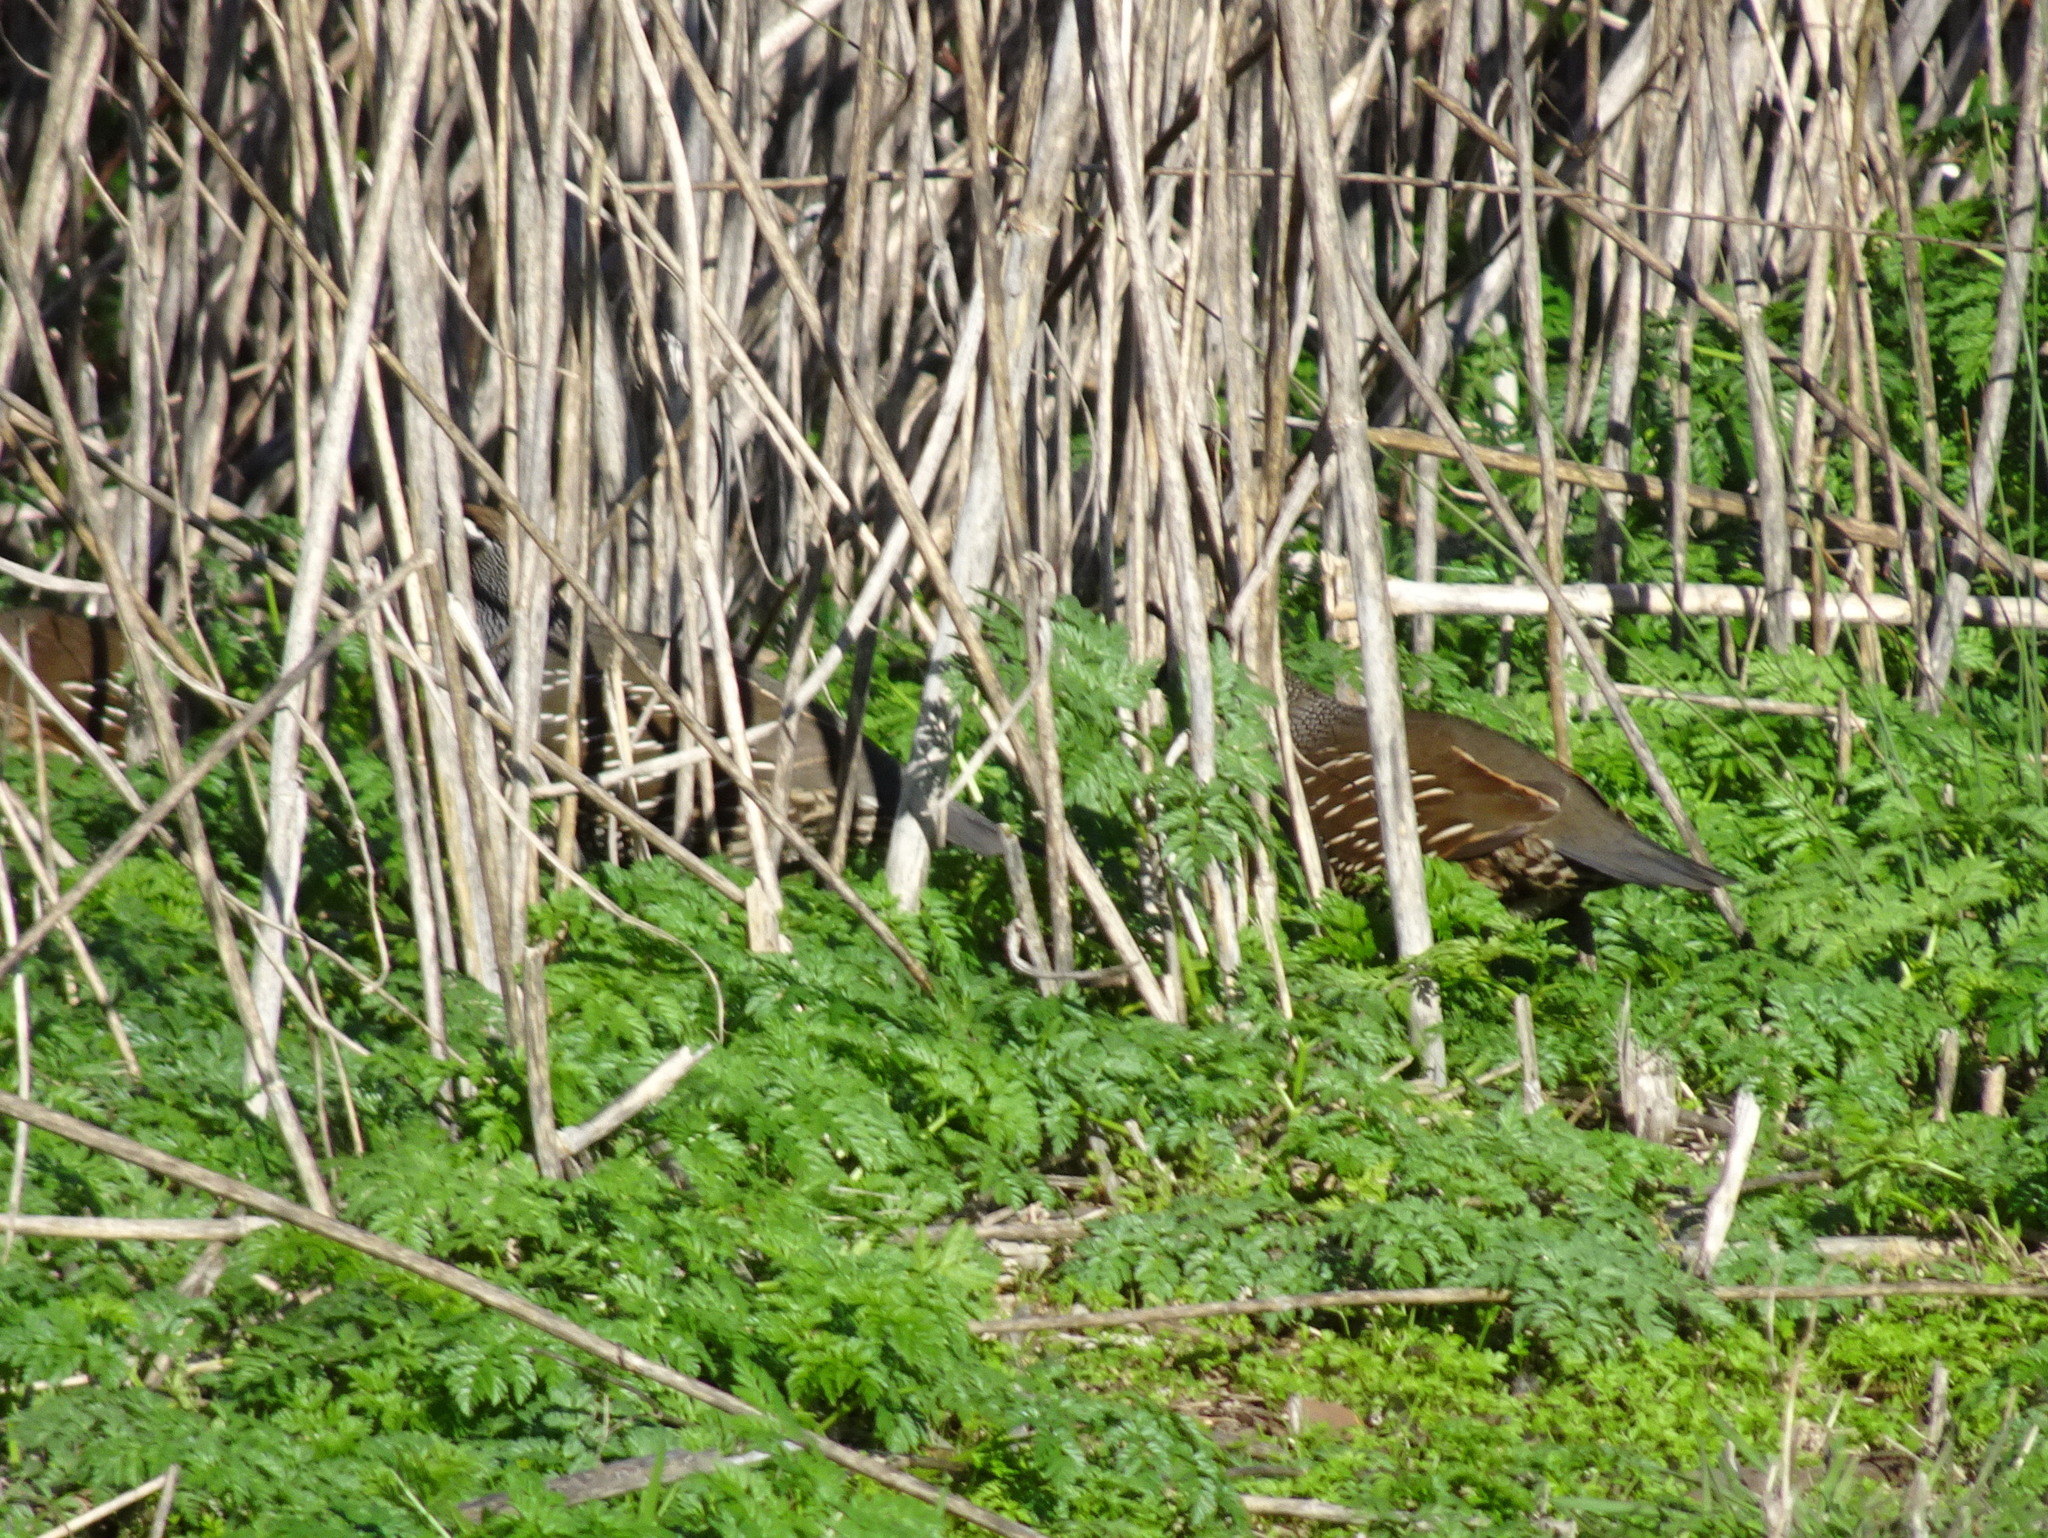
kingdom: Animalia
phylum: Chordata
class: Aves
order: Galliformes
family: Odontophoridae
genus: Callipepla
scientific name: Callipepla californica
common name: California quail
